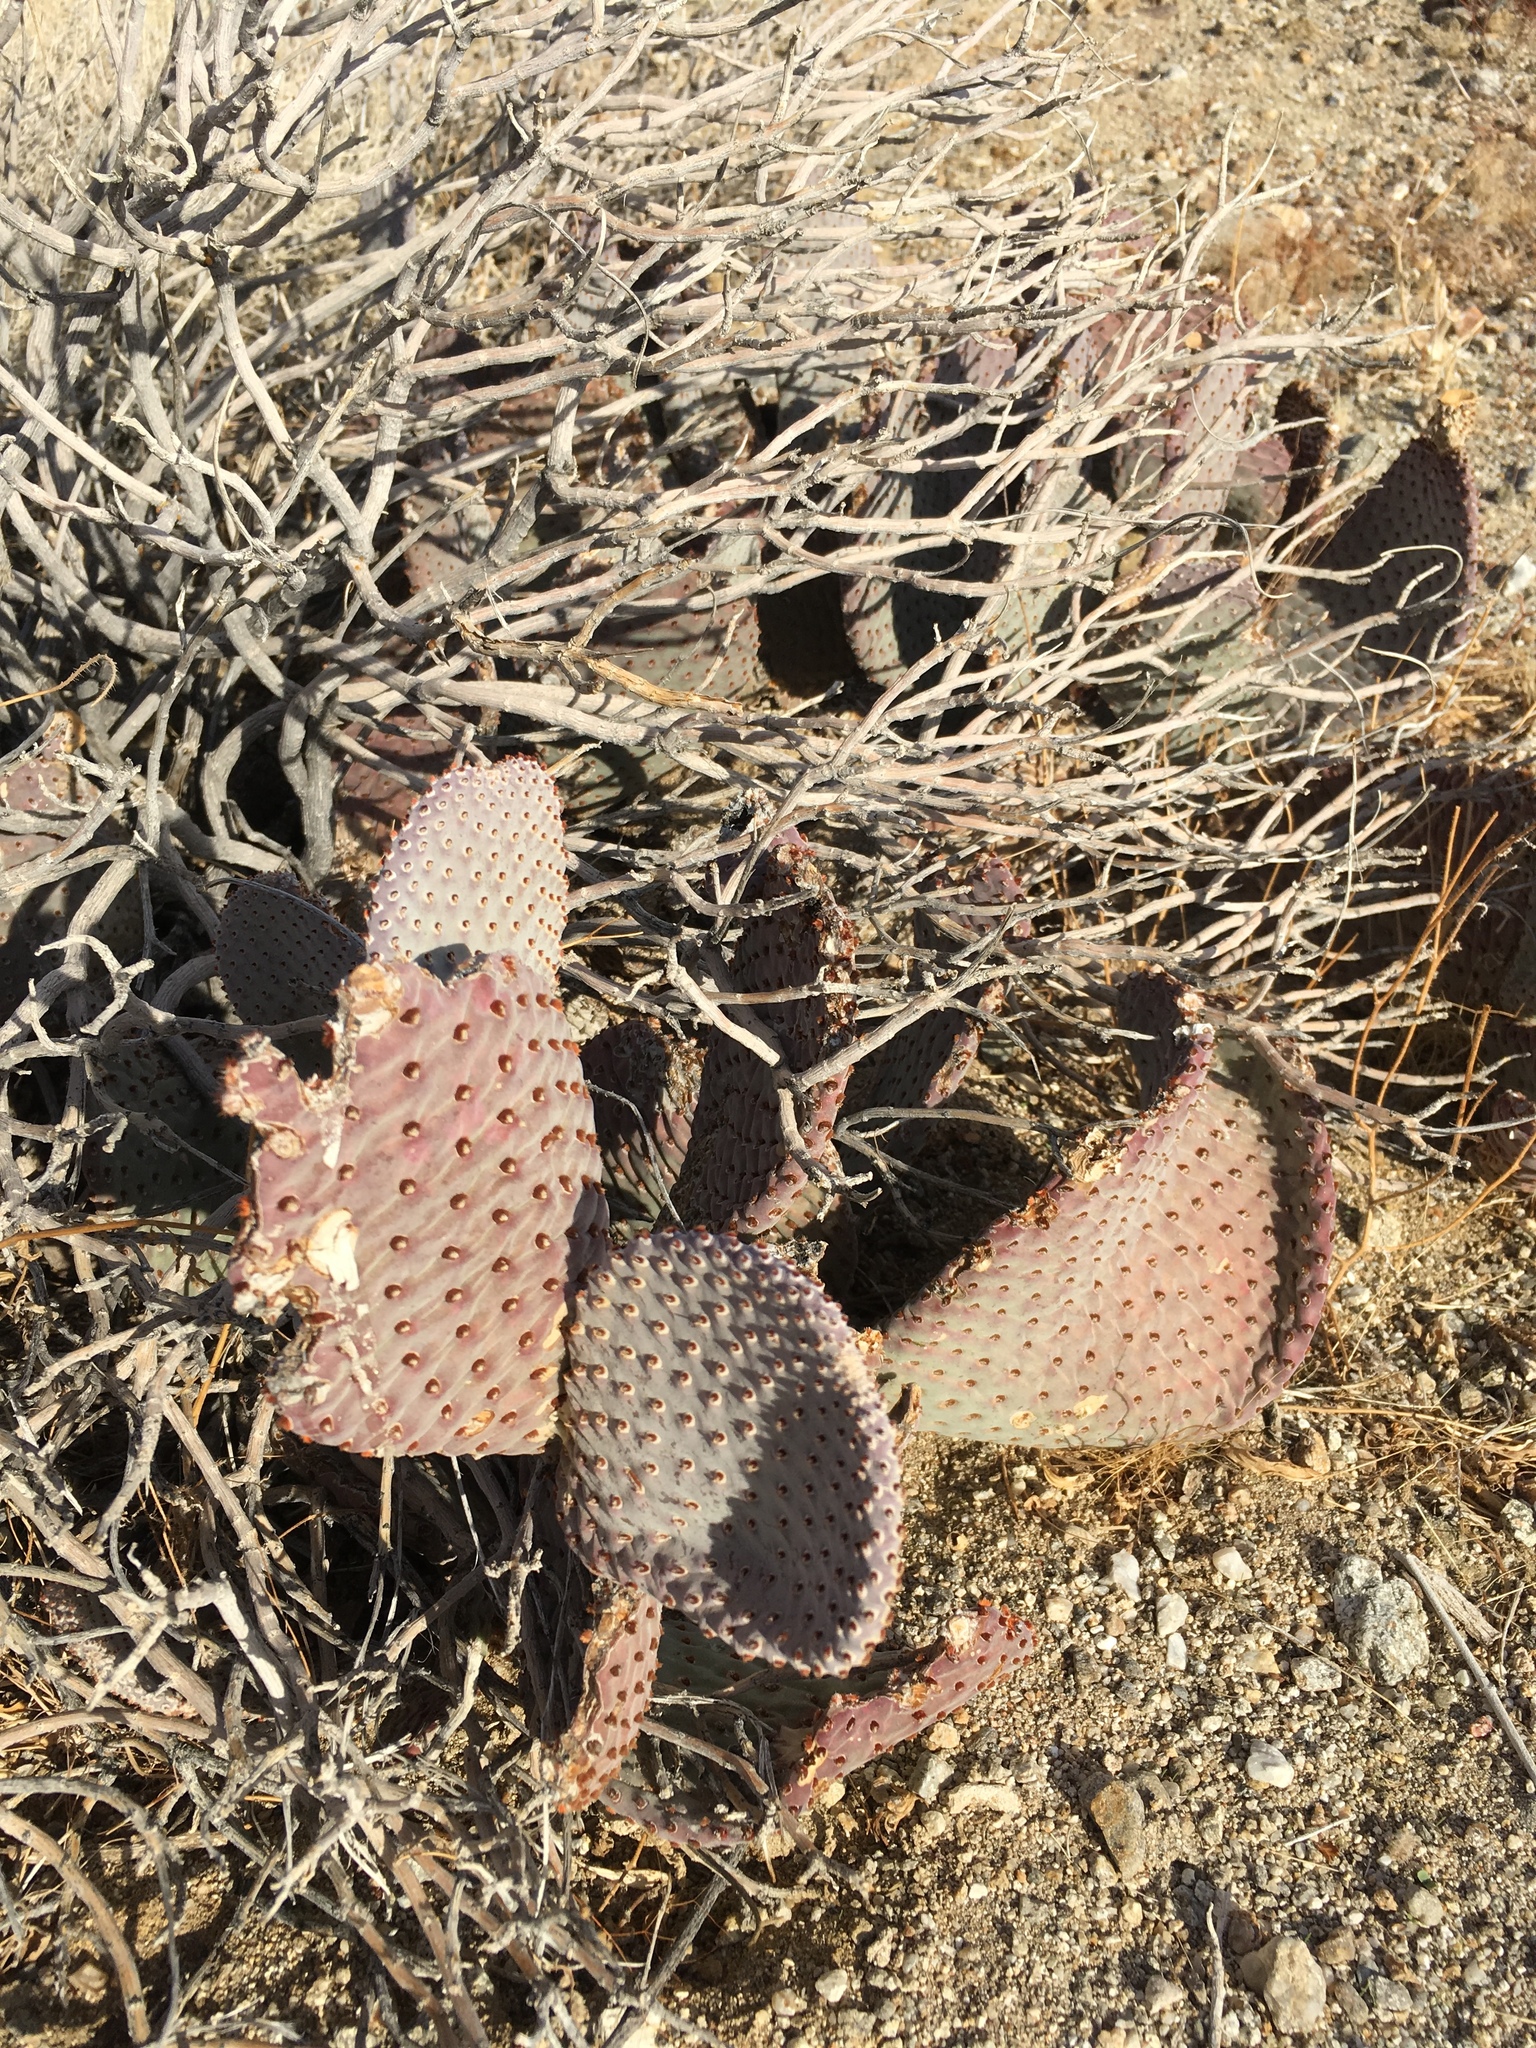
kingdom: Plantae
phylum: Tracheophyta
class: Magnoliopsida
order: Caryophyllales
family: Cactaceae
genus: Opuntia
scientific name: Opuntia basilaris
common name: Beavertail prickly-pear
